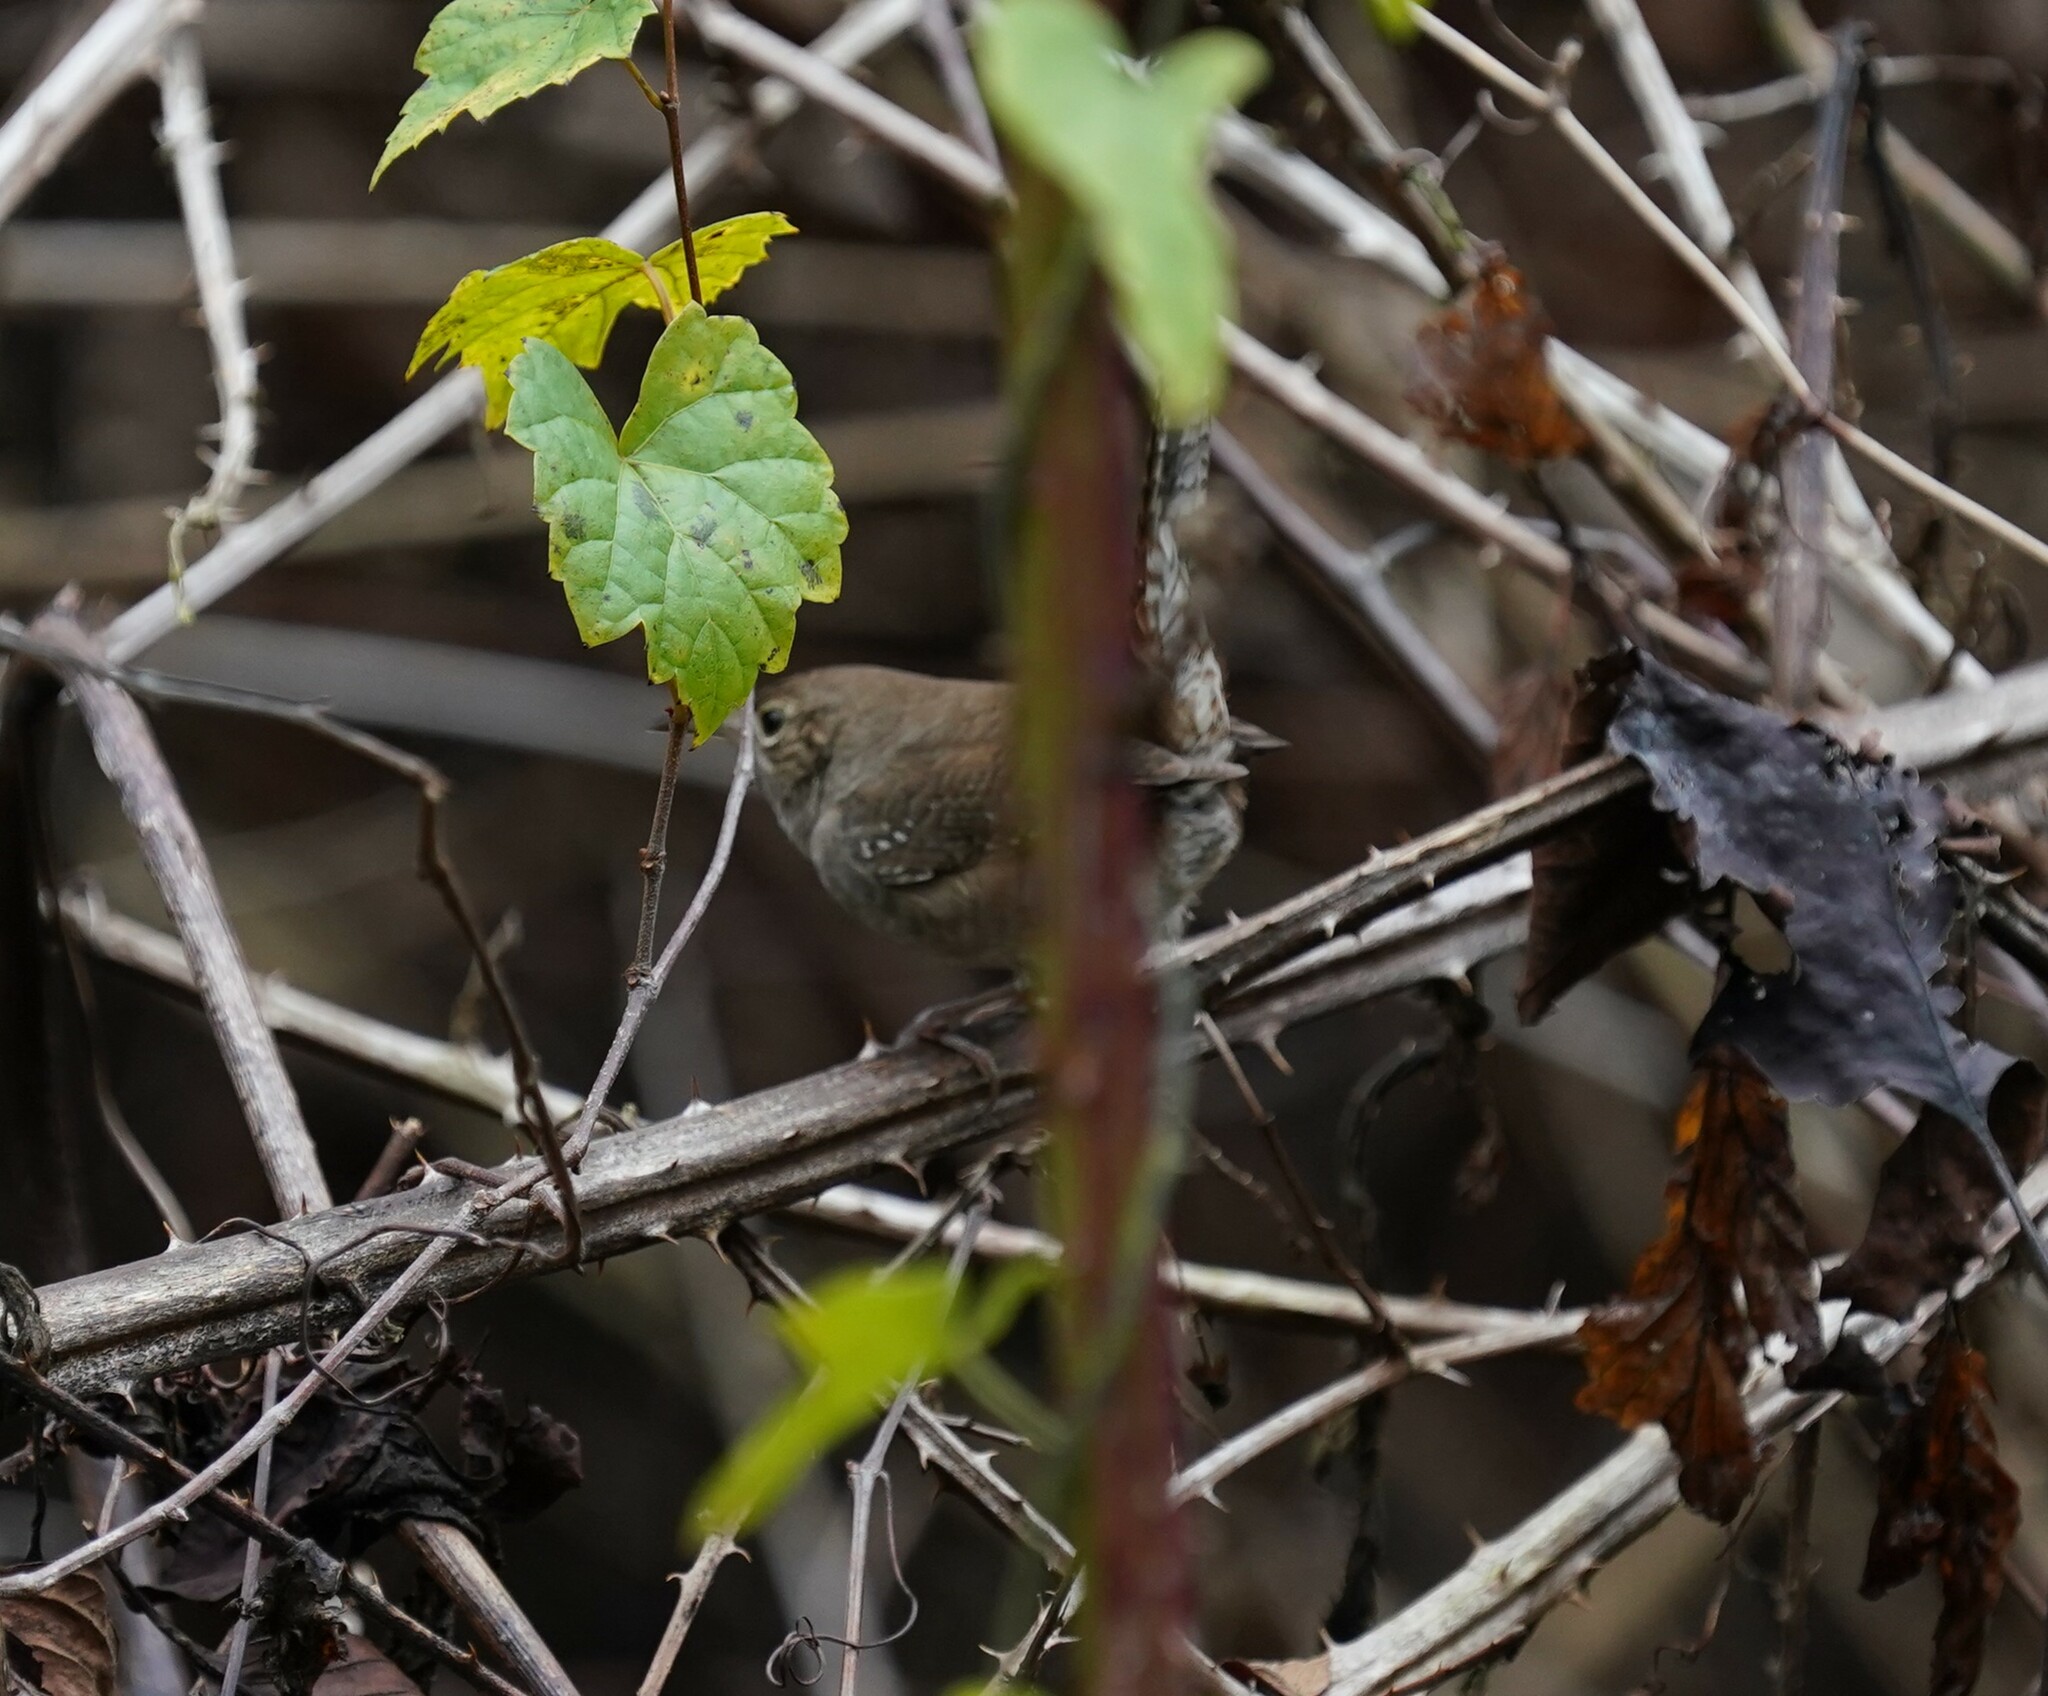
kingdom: Animalia
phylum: Chordata
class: Aves
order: Passeriformes
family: Troglodytidae
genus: Troglodytes
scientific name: Troglodytes aedon
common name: House wren
